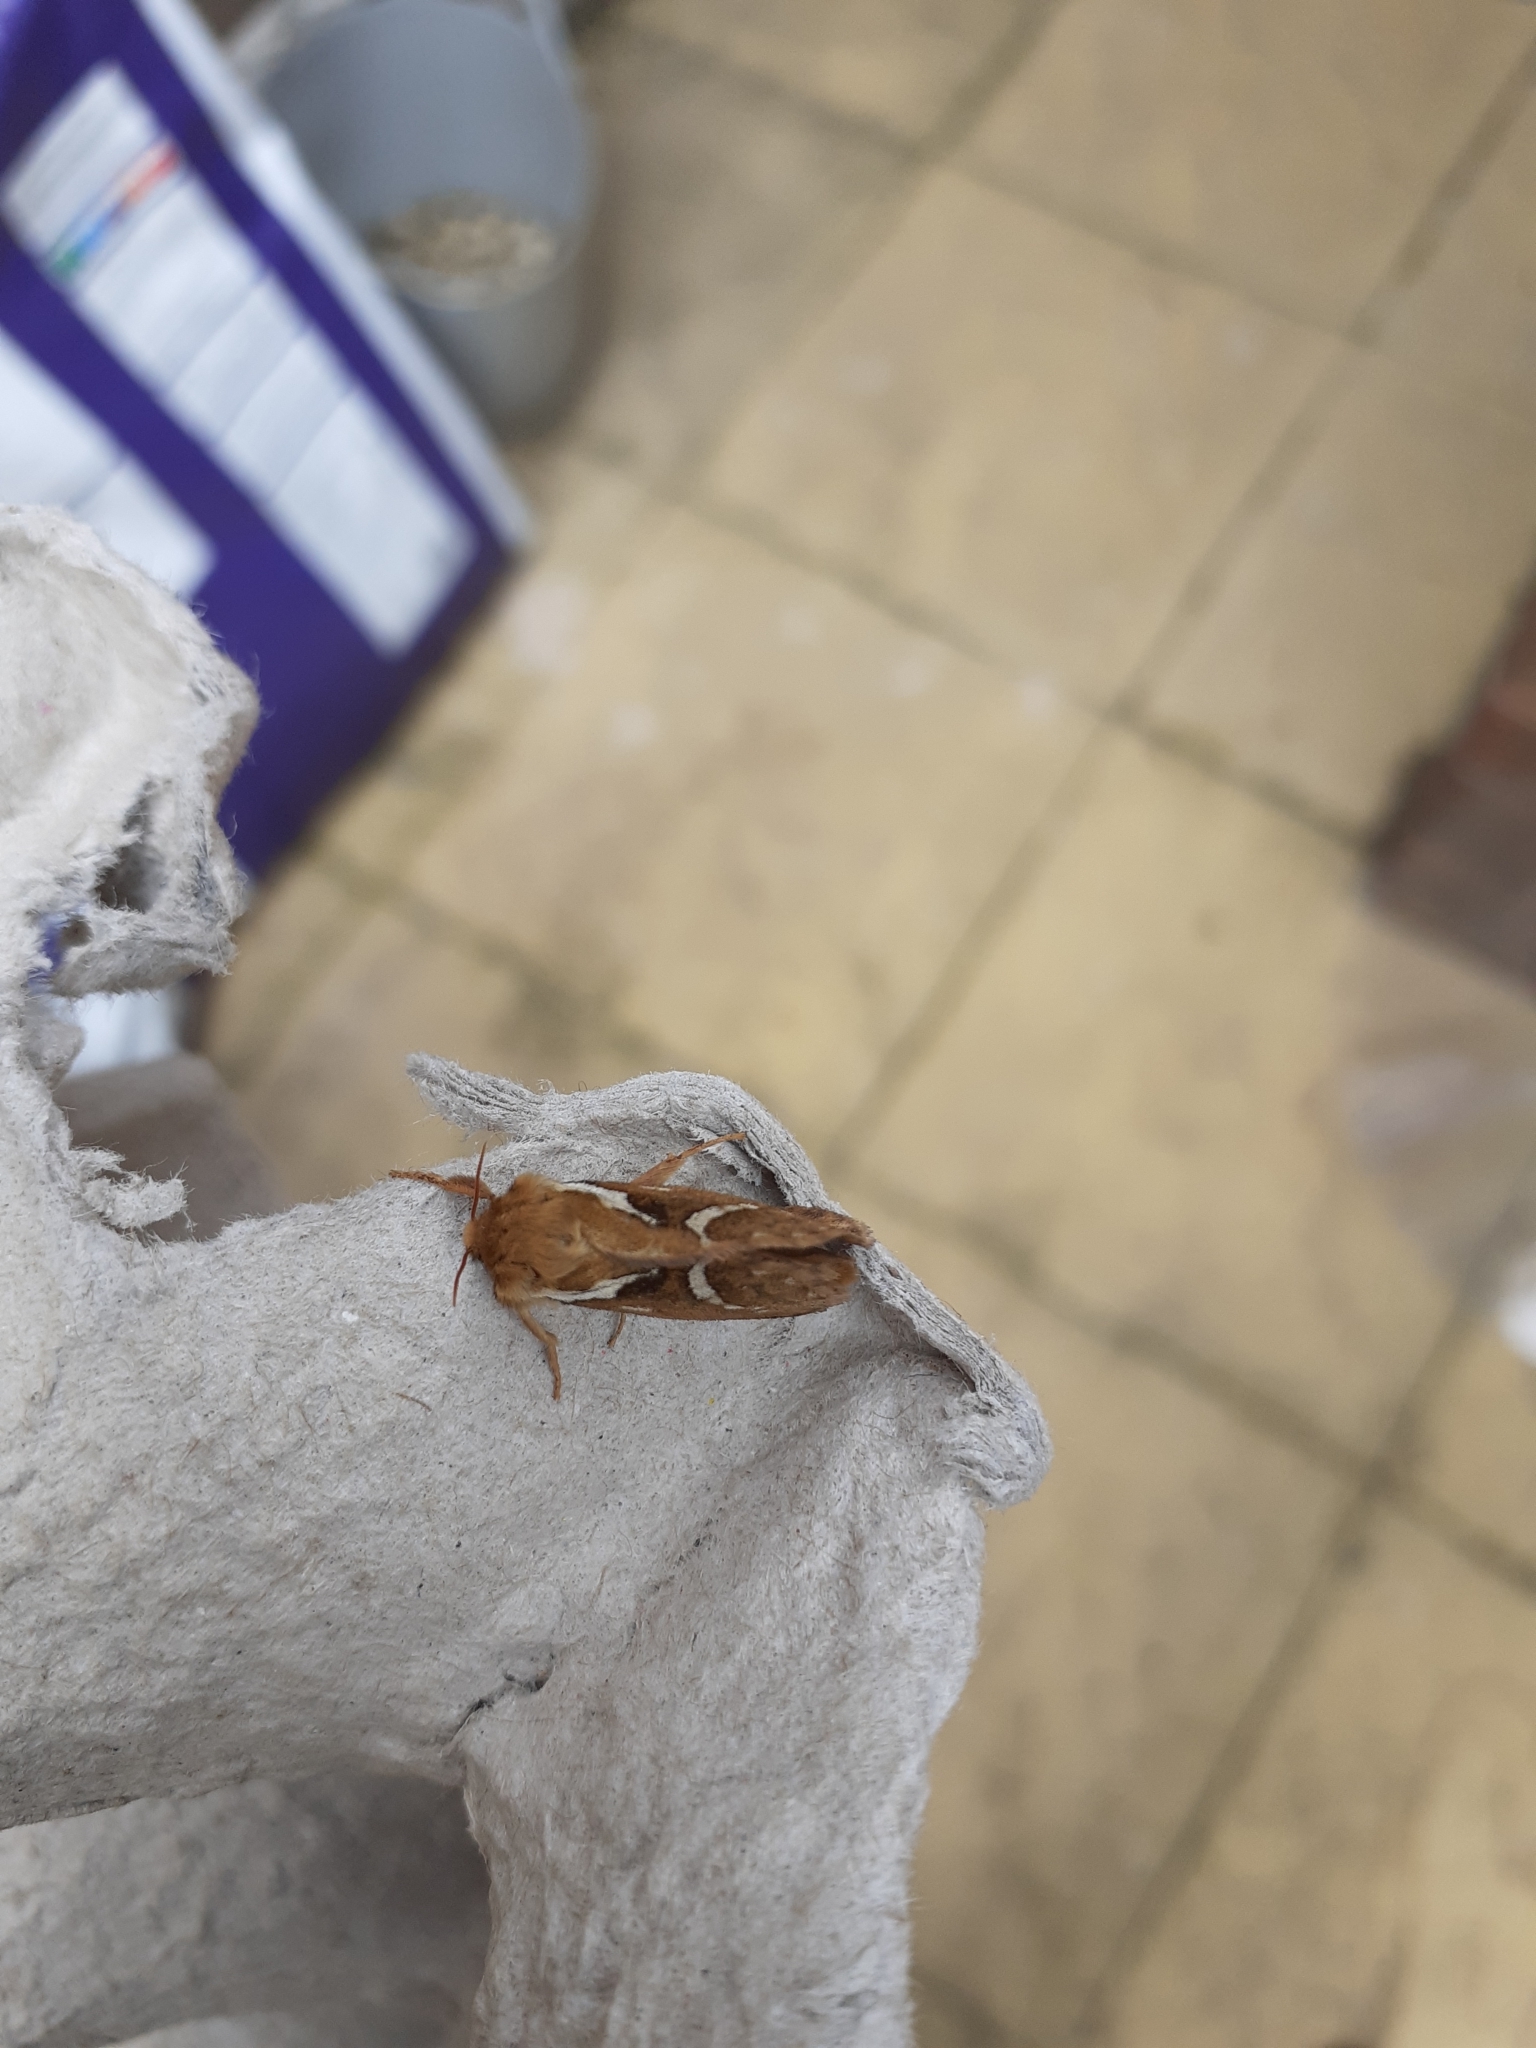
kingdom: Animalia
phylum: Arthropoda
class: Insecta
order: Lepidoptera
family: Hepialidae
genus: Korscheltellus
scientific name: Korscheltellus lupulina
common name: Common swift
